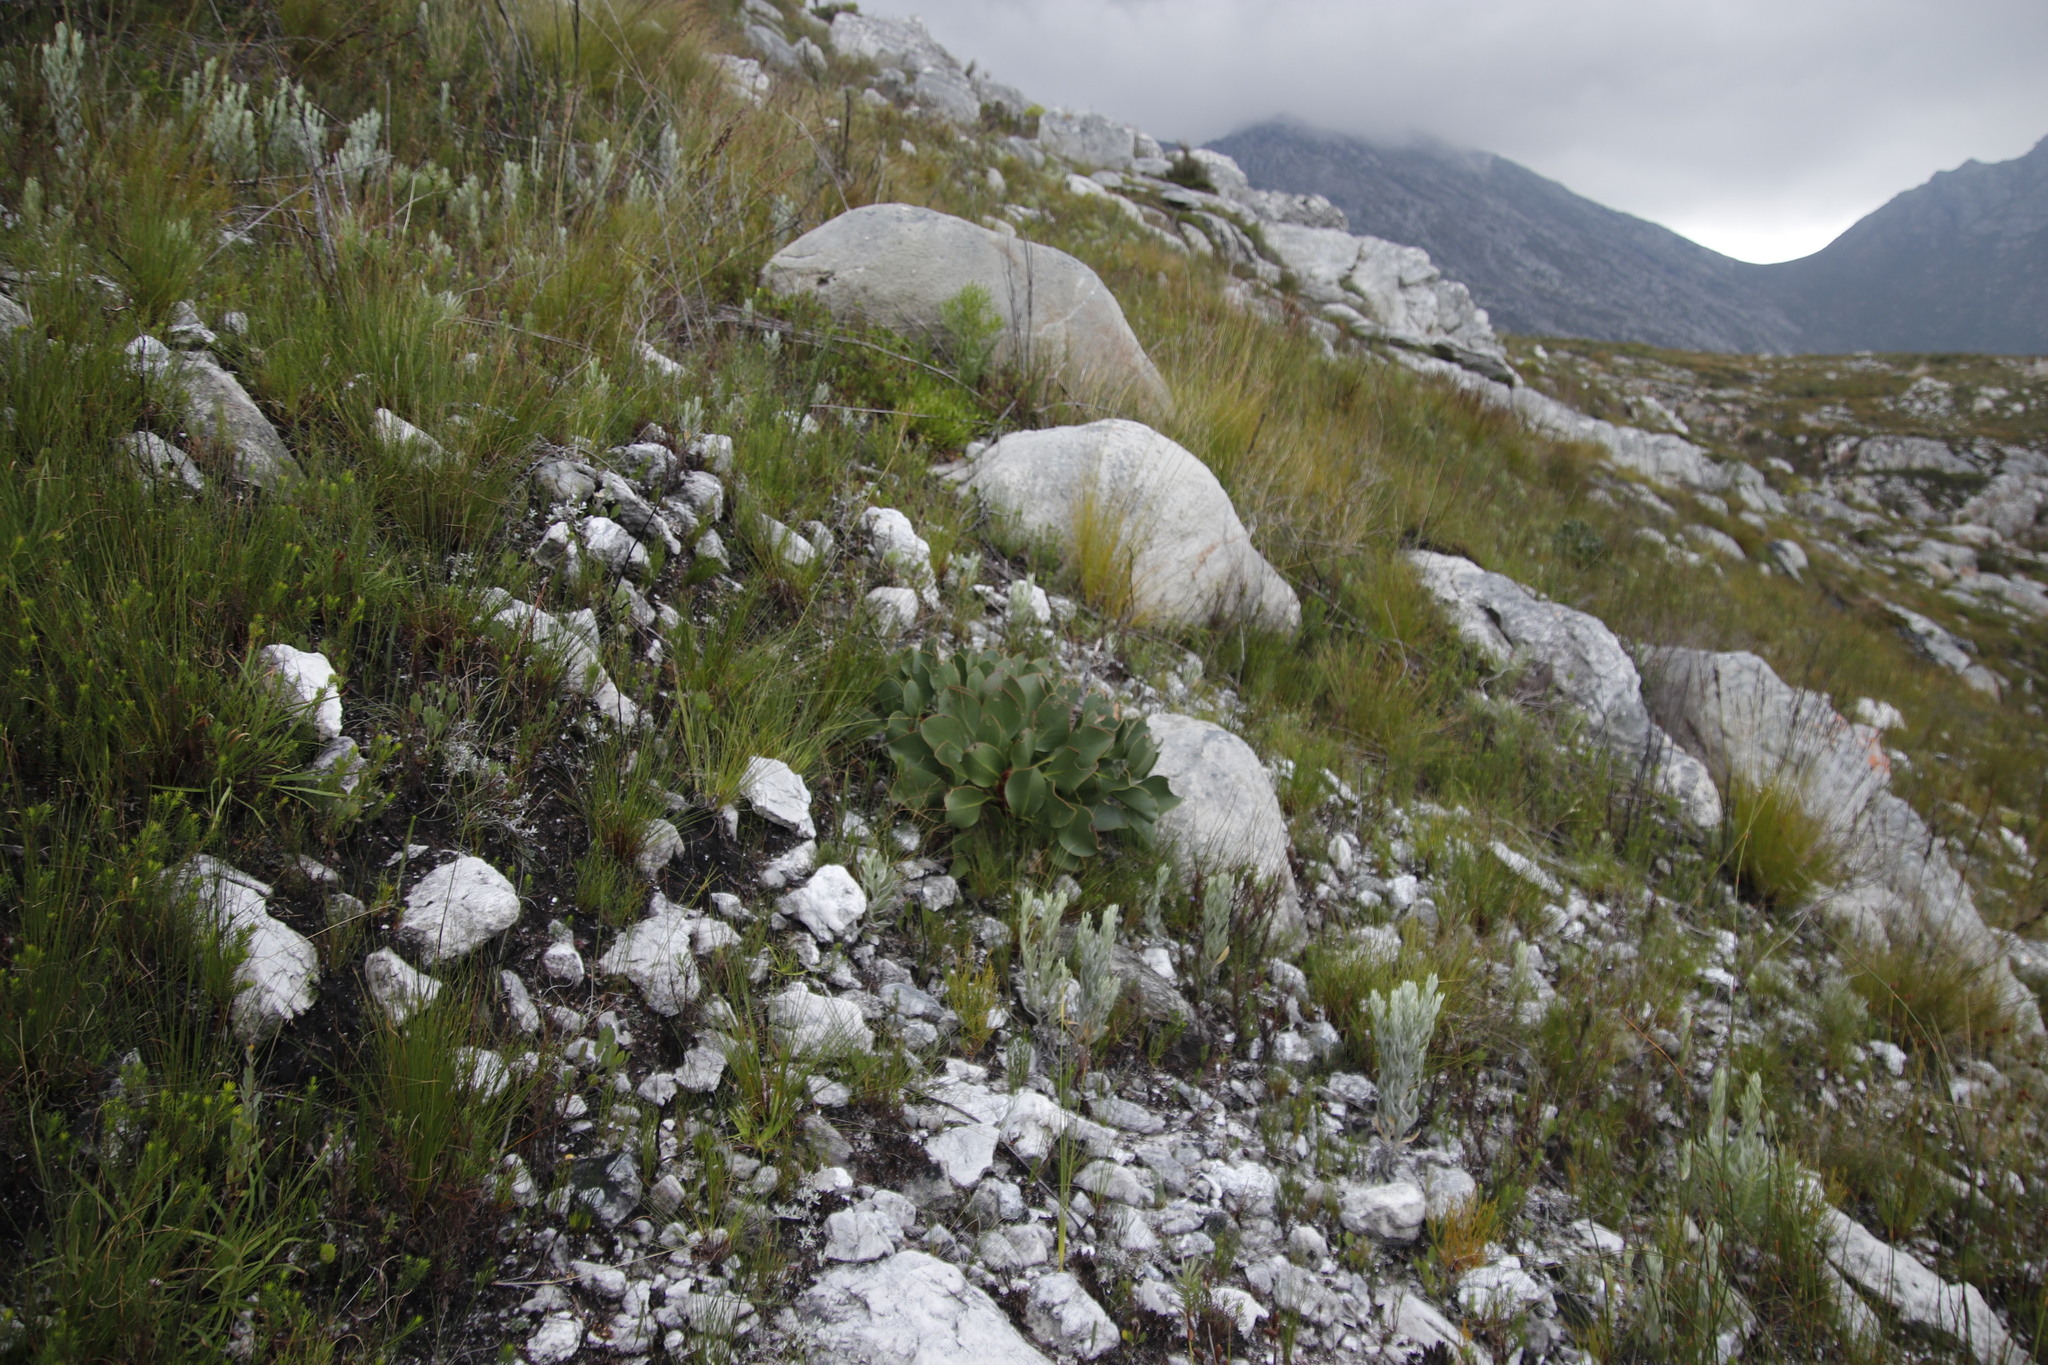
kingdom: Plantae
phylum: Tracheophyta
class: Magnoliopsida
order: Proteales
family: Proteaceae
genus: Protea
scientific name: Protea cynaroides
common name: King protea
